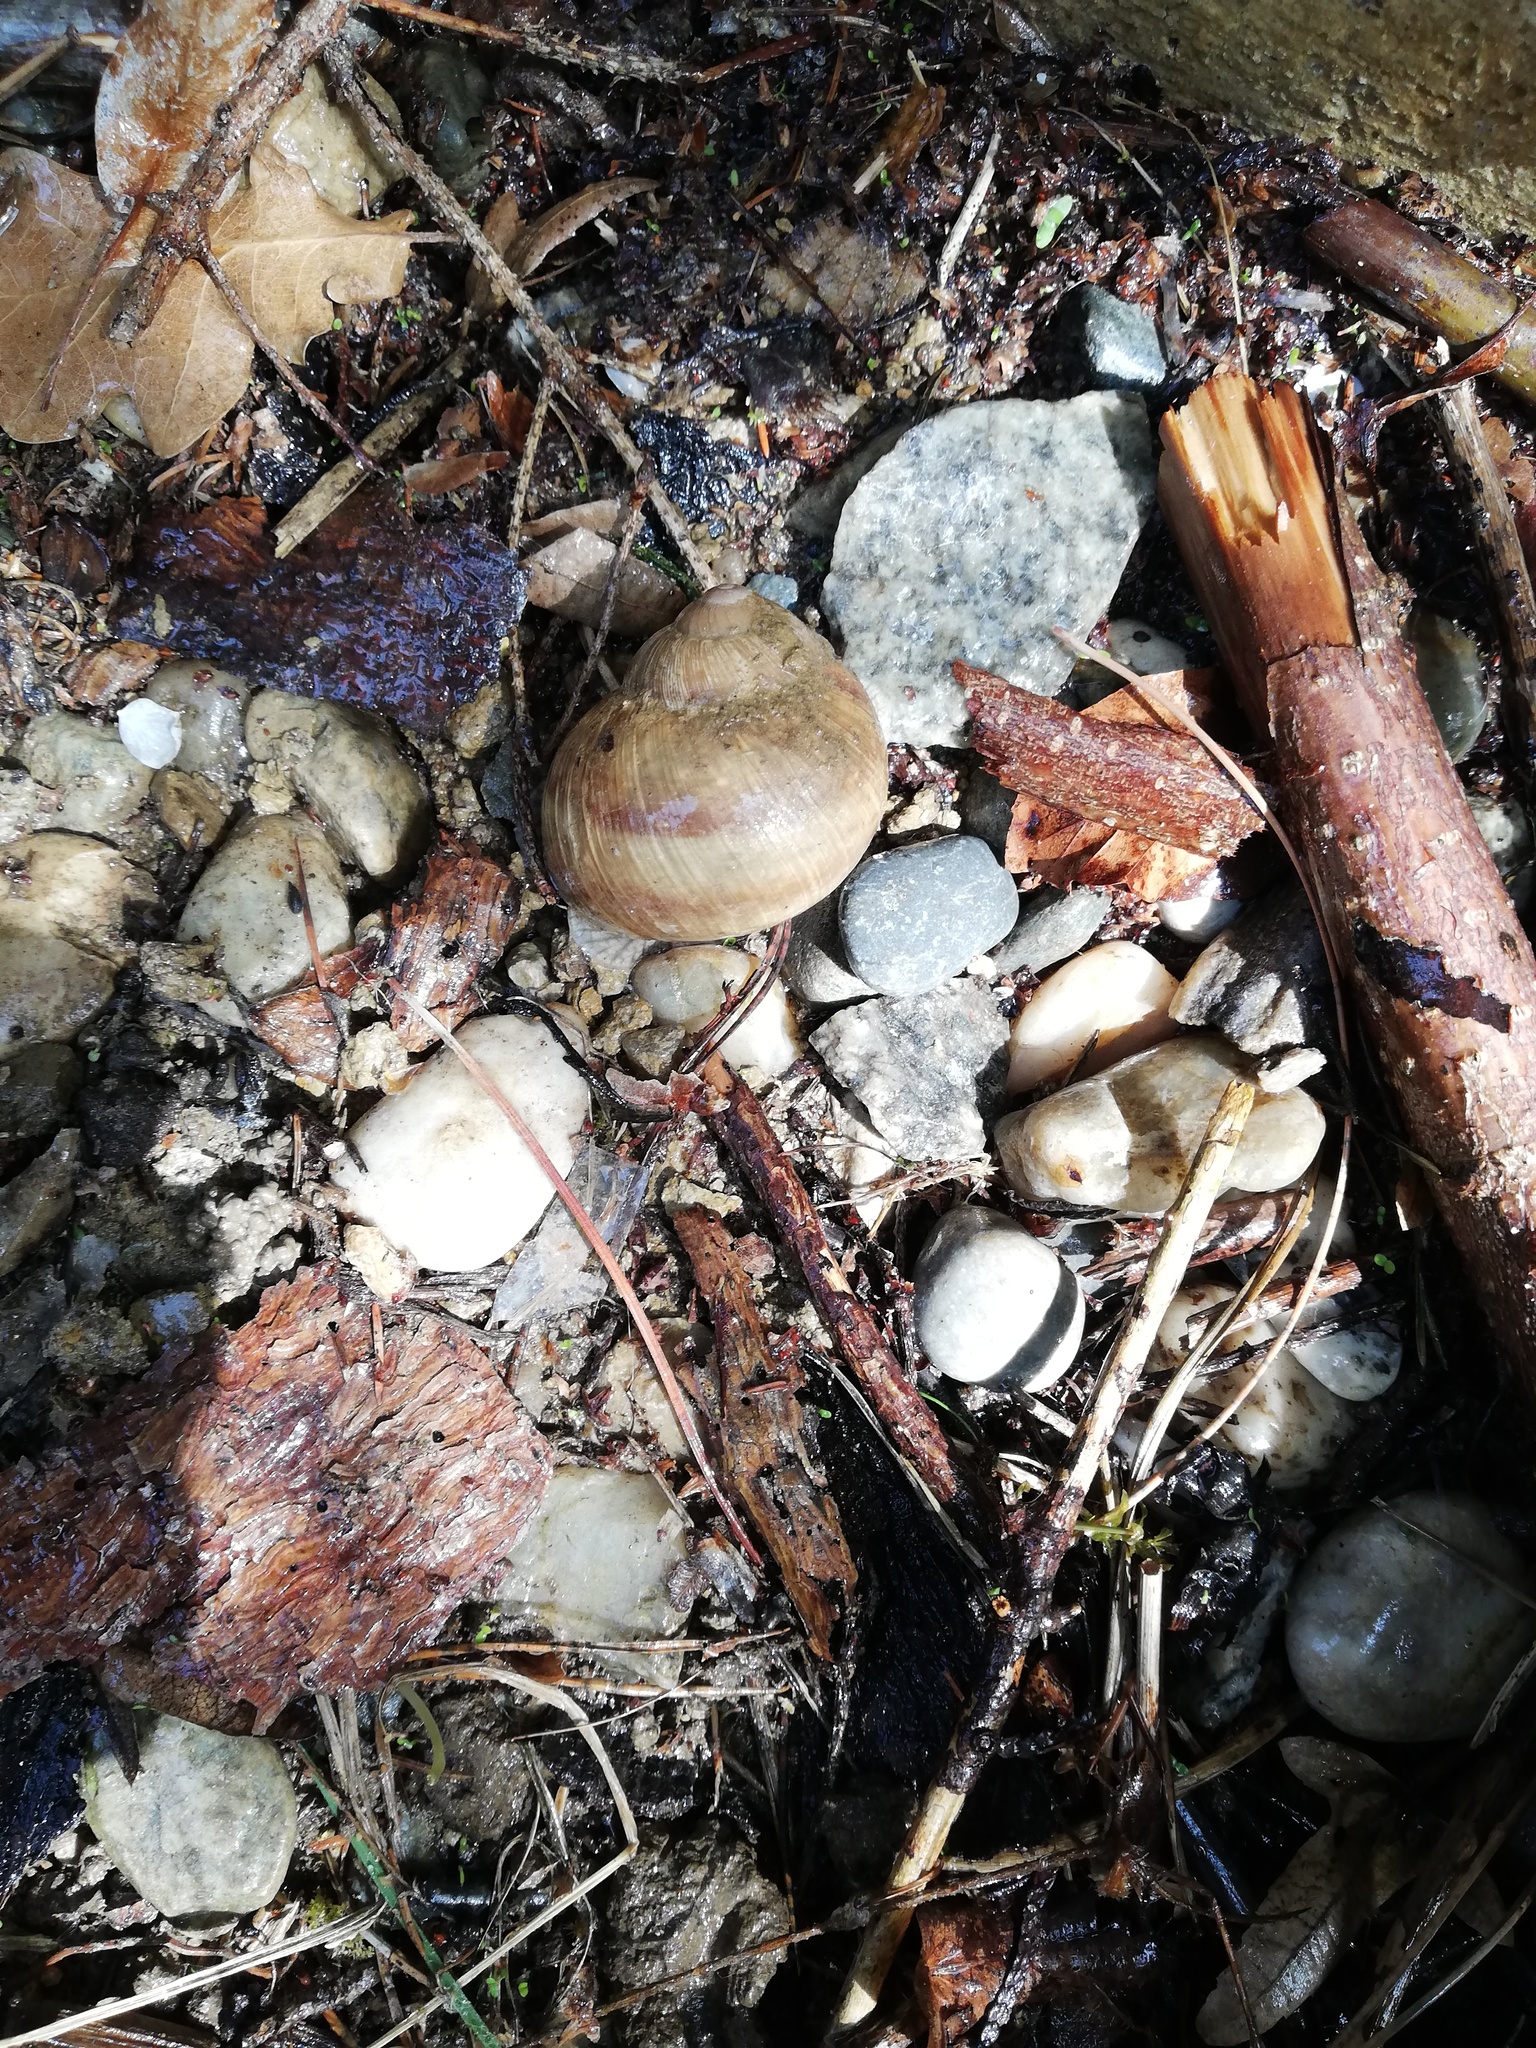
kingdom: Animalia
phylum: Mollusca
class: Gastropoda
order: Stylommatophora
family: Helicidae
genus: Helix
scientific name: Helix pomatia
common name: Roman snail
